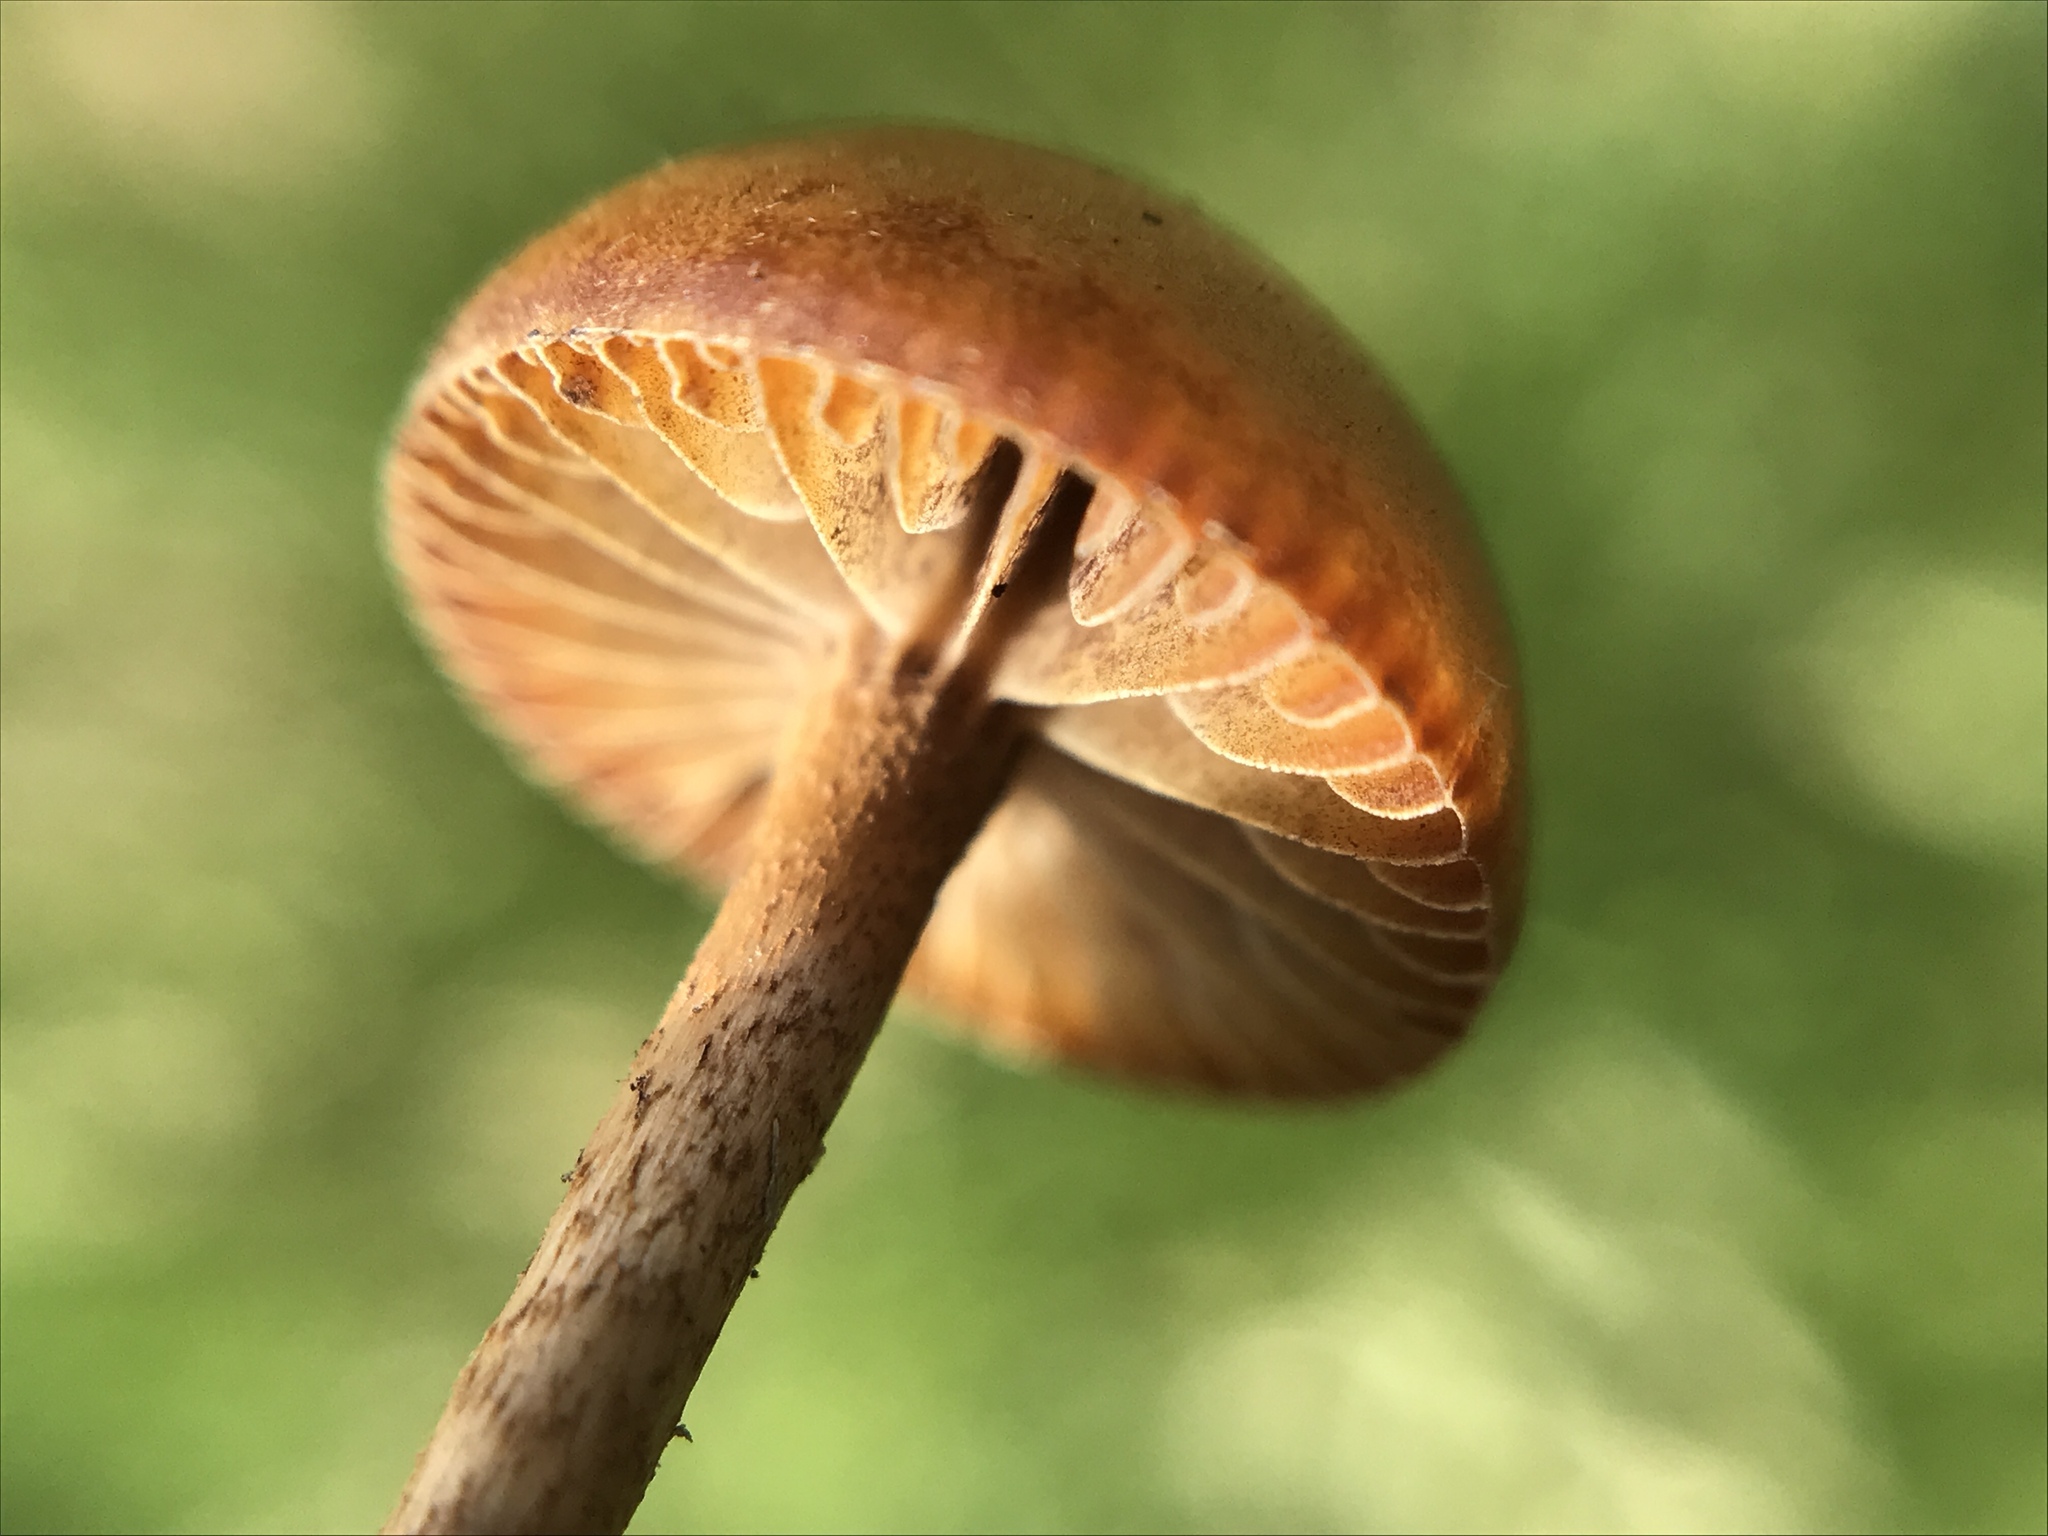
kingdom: Fungi
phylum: Basidiomycota
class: Agaricomycetes
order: Agaricales
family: Strophariaceae
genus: Deconica
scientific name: Deconica coprophila
